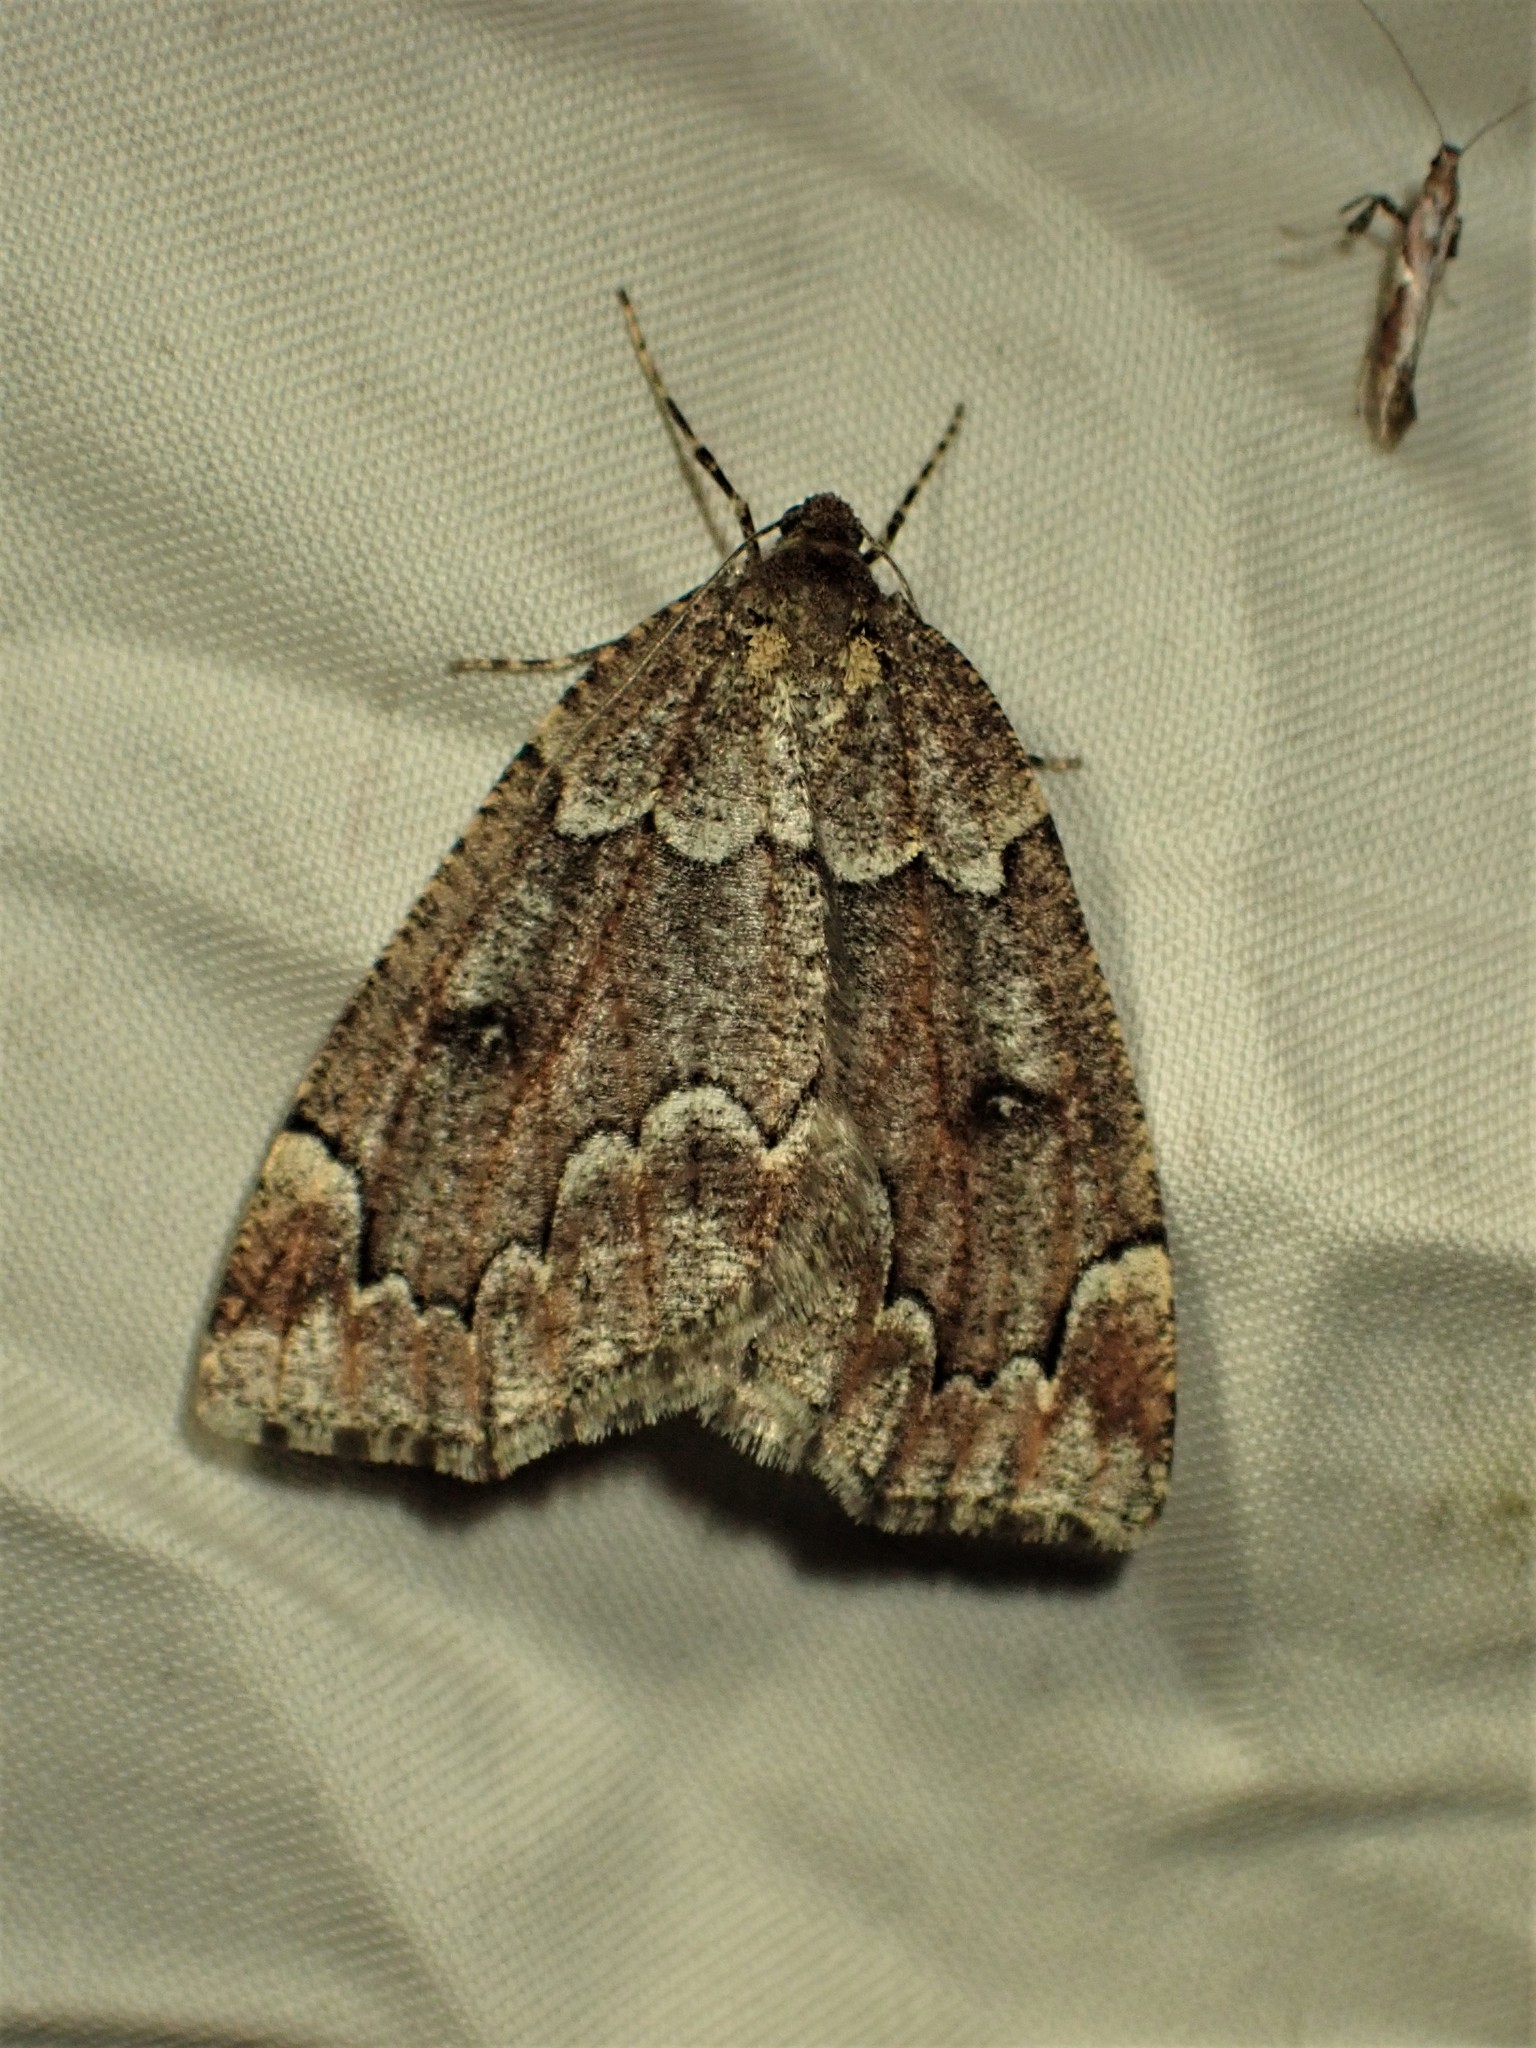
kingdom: Animalia
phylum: Arthropoda
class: Insecta
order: Lepidoptera
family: Geometridae
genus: Spodolepis
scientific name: Spodolepis substriataria
